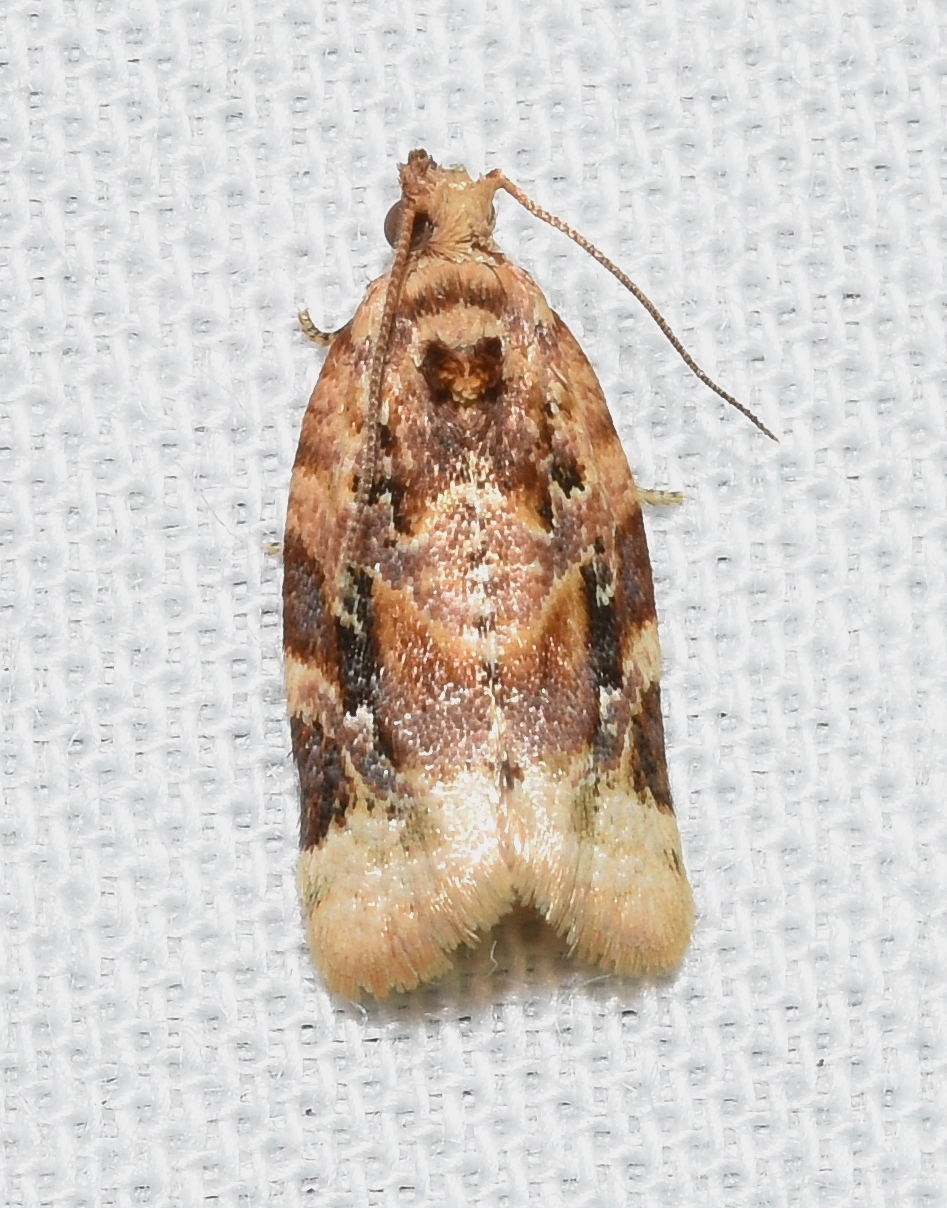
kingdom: Animalia
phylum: Arthropoda
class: Insecta
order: Lepidoptera
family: Tortricidae
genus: Argyrotaenia
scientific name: Argyrotaenia velutinana
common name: Red-banded leafroller moth
